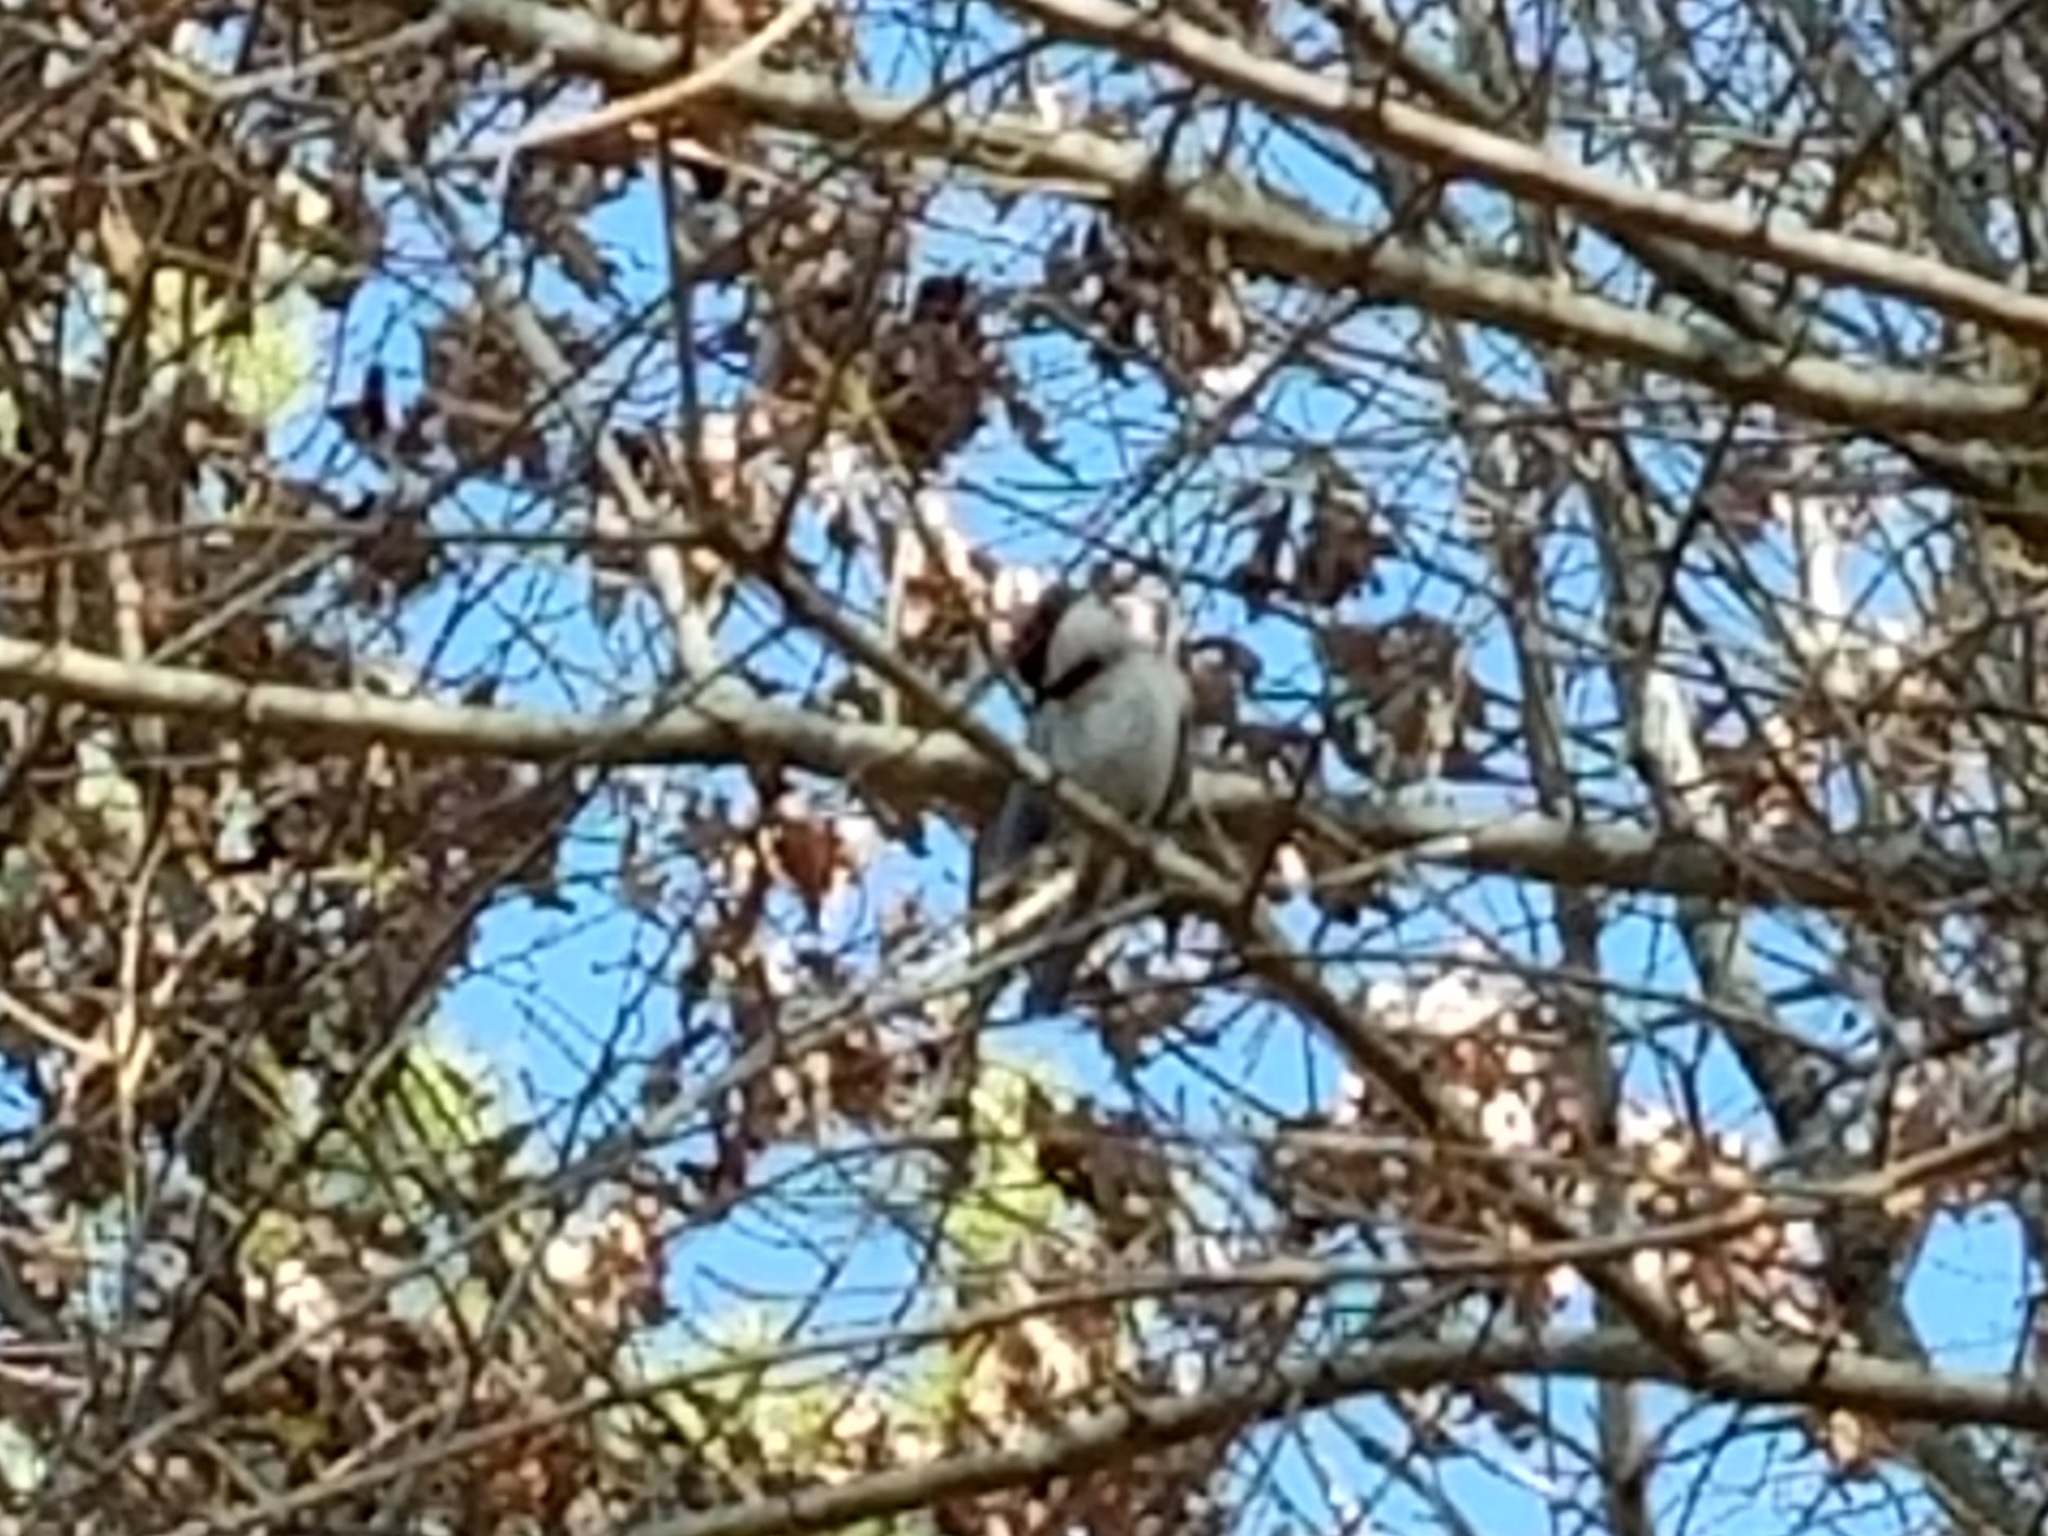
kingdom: Animalia
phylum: Chordata
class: Aves
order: Passeriformes
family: Paridae
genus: Poecile
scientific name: Poecile carolinensis
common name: Carolina chickadee
